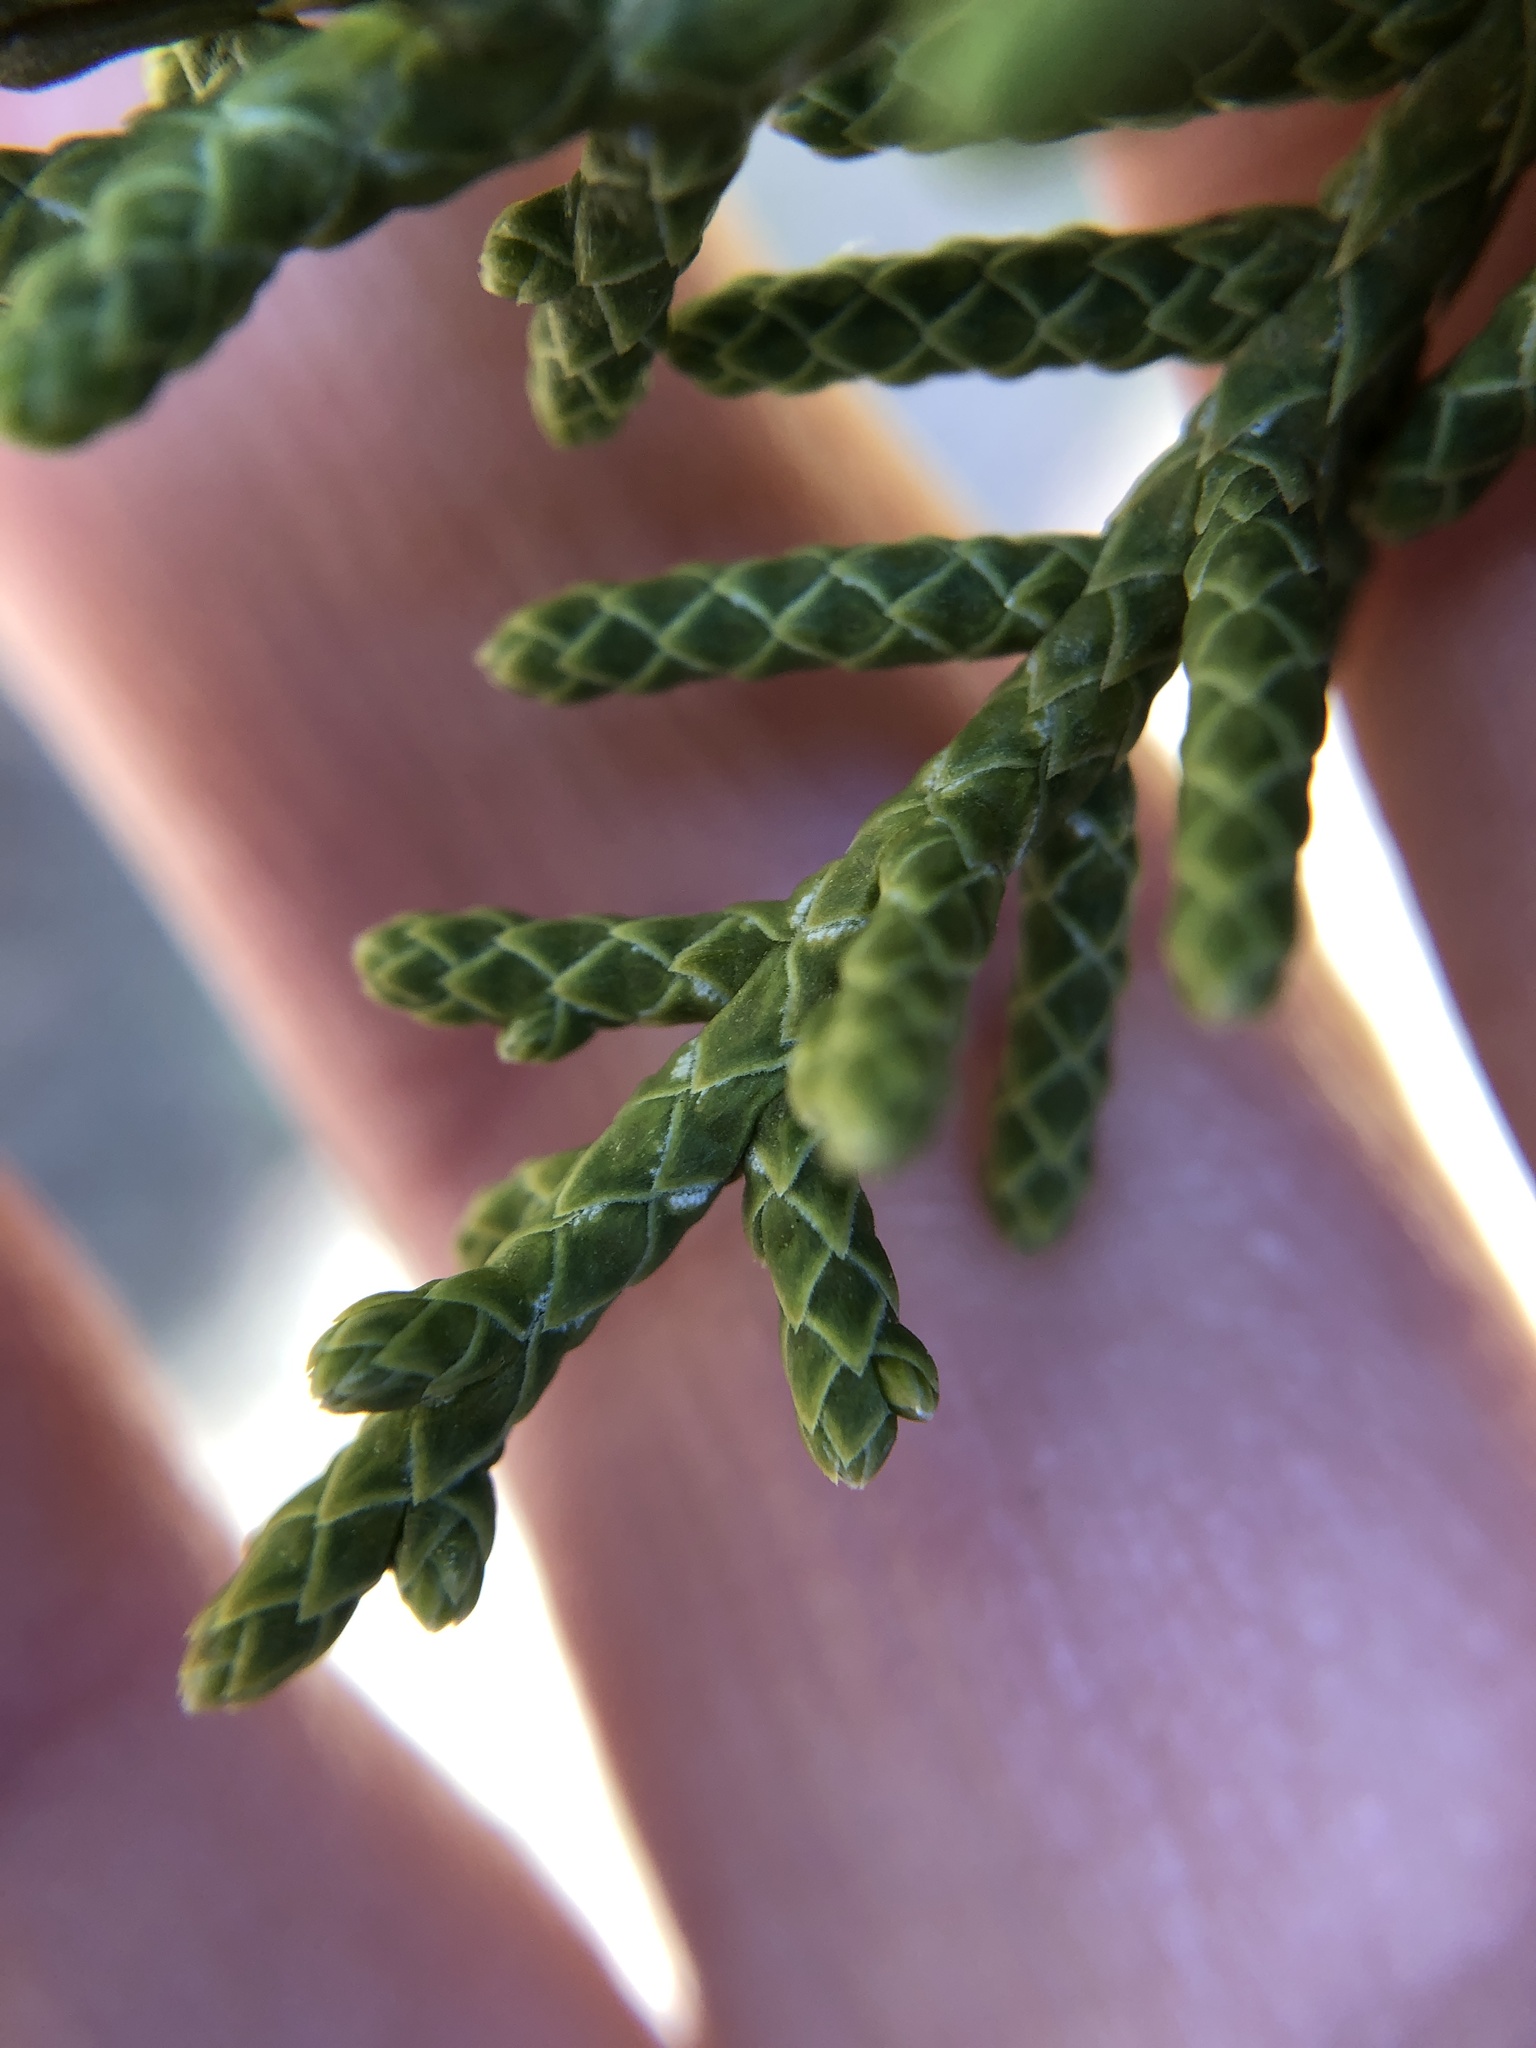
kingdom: Plantae
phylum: Tracheophyta
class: Pinopsida
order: Pinales
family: Cupressaceae
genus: Juniperus
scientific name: Juniperus californica
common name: California juniper
